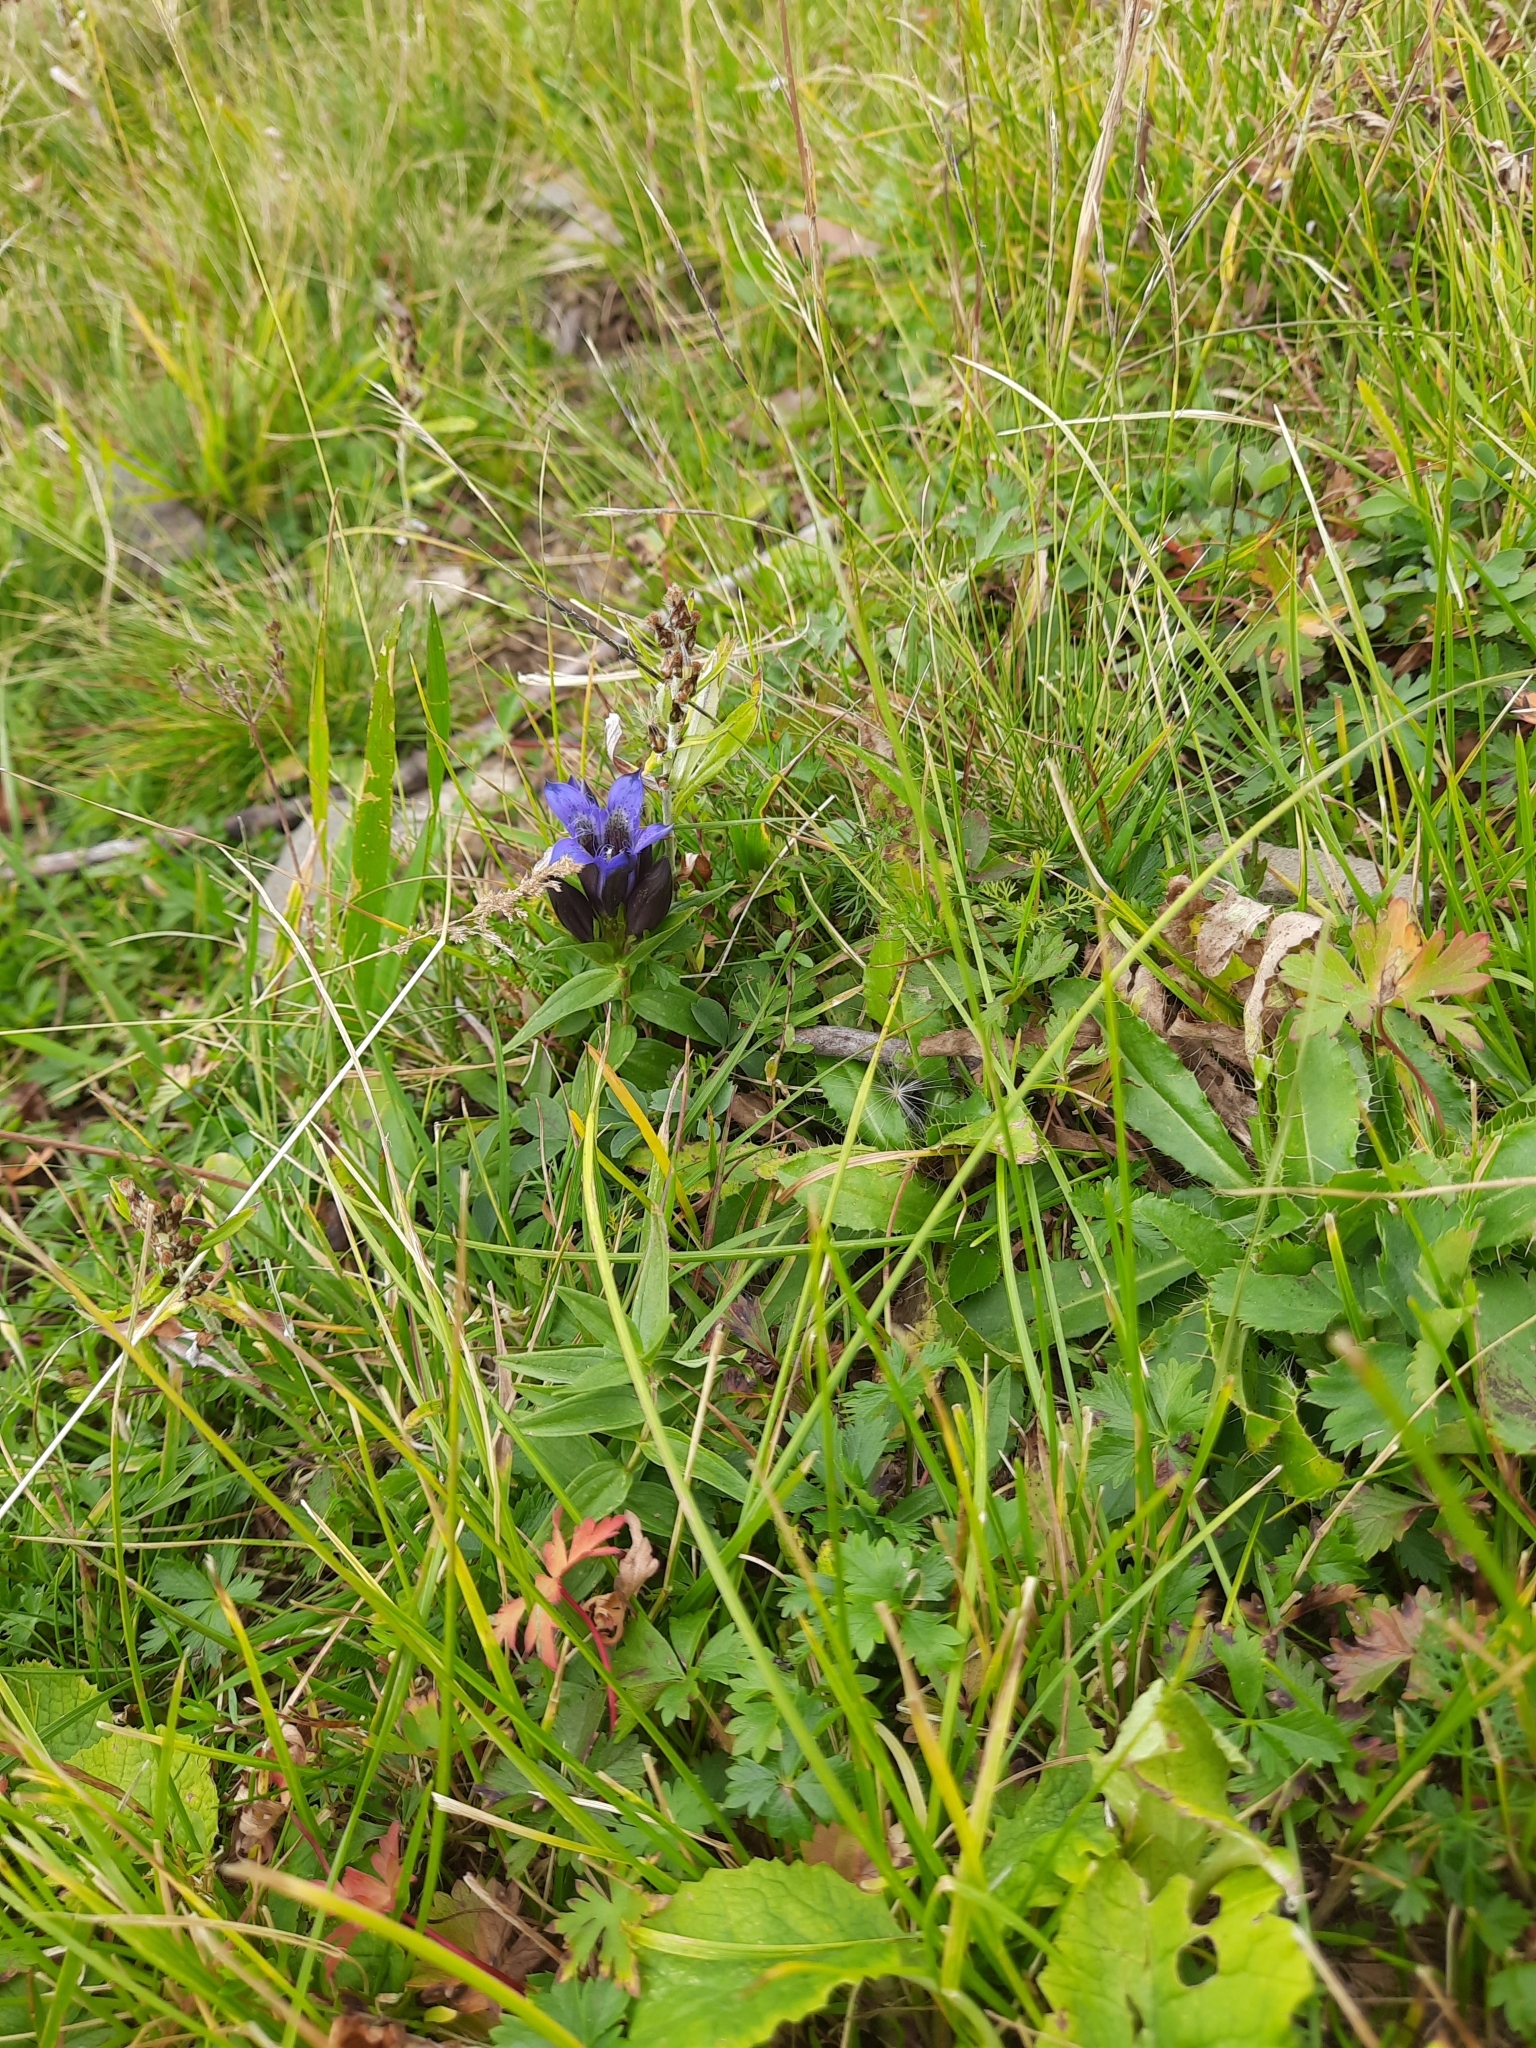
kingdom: Plantae
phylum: Tracheophyta
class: Magnoliopsida
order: Gentianales
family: Gentianaceae
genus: Gentiana
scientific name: Gentiana septemfida
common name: Crested gentian
